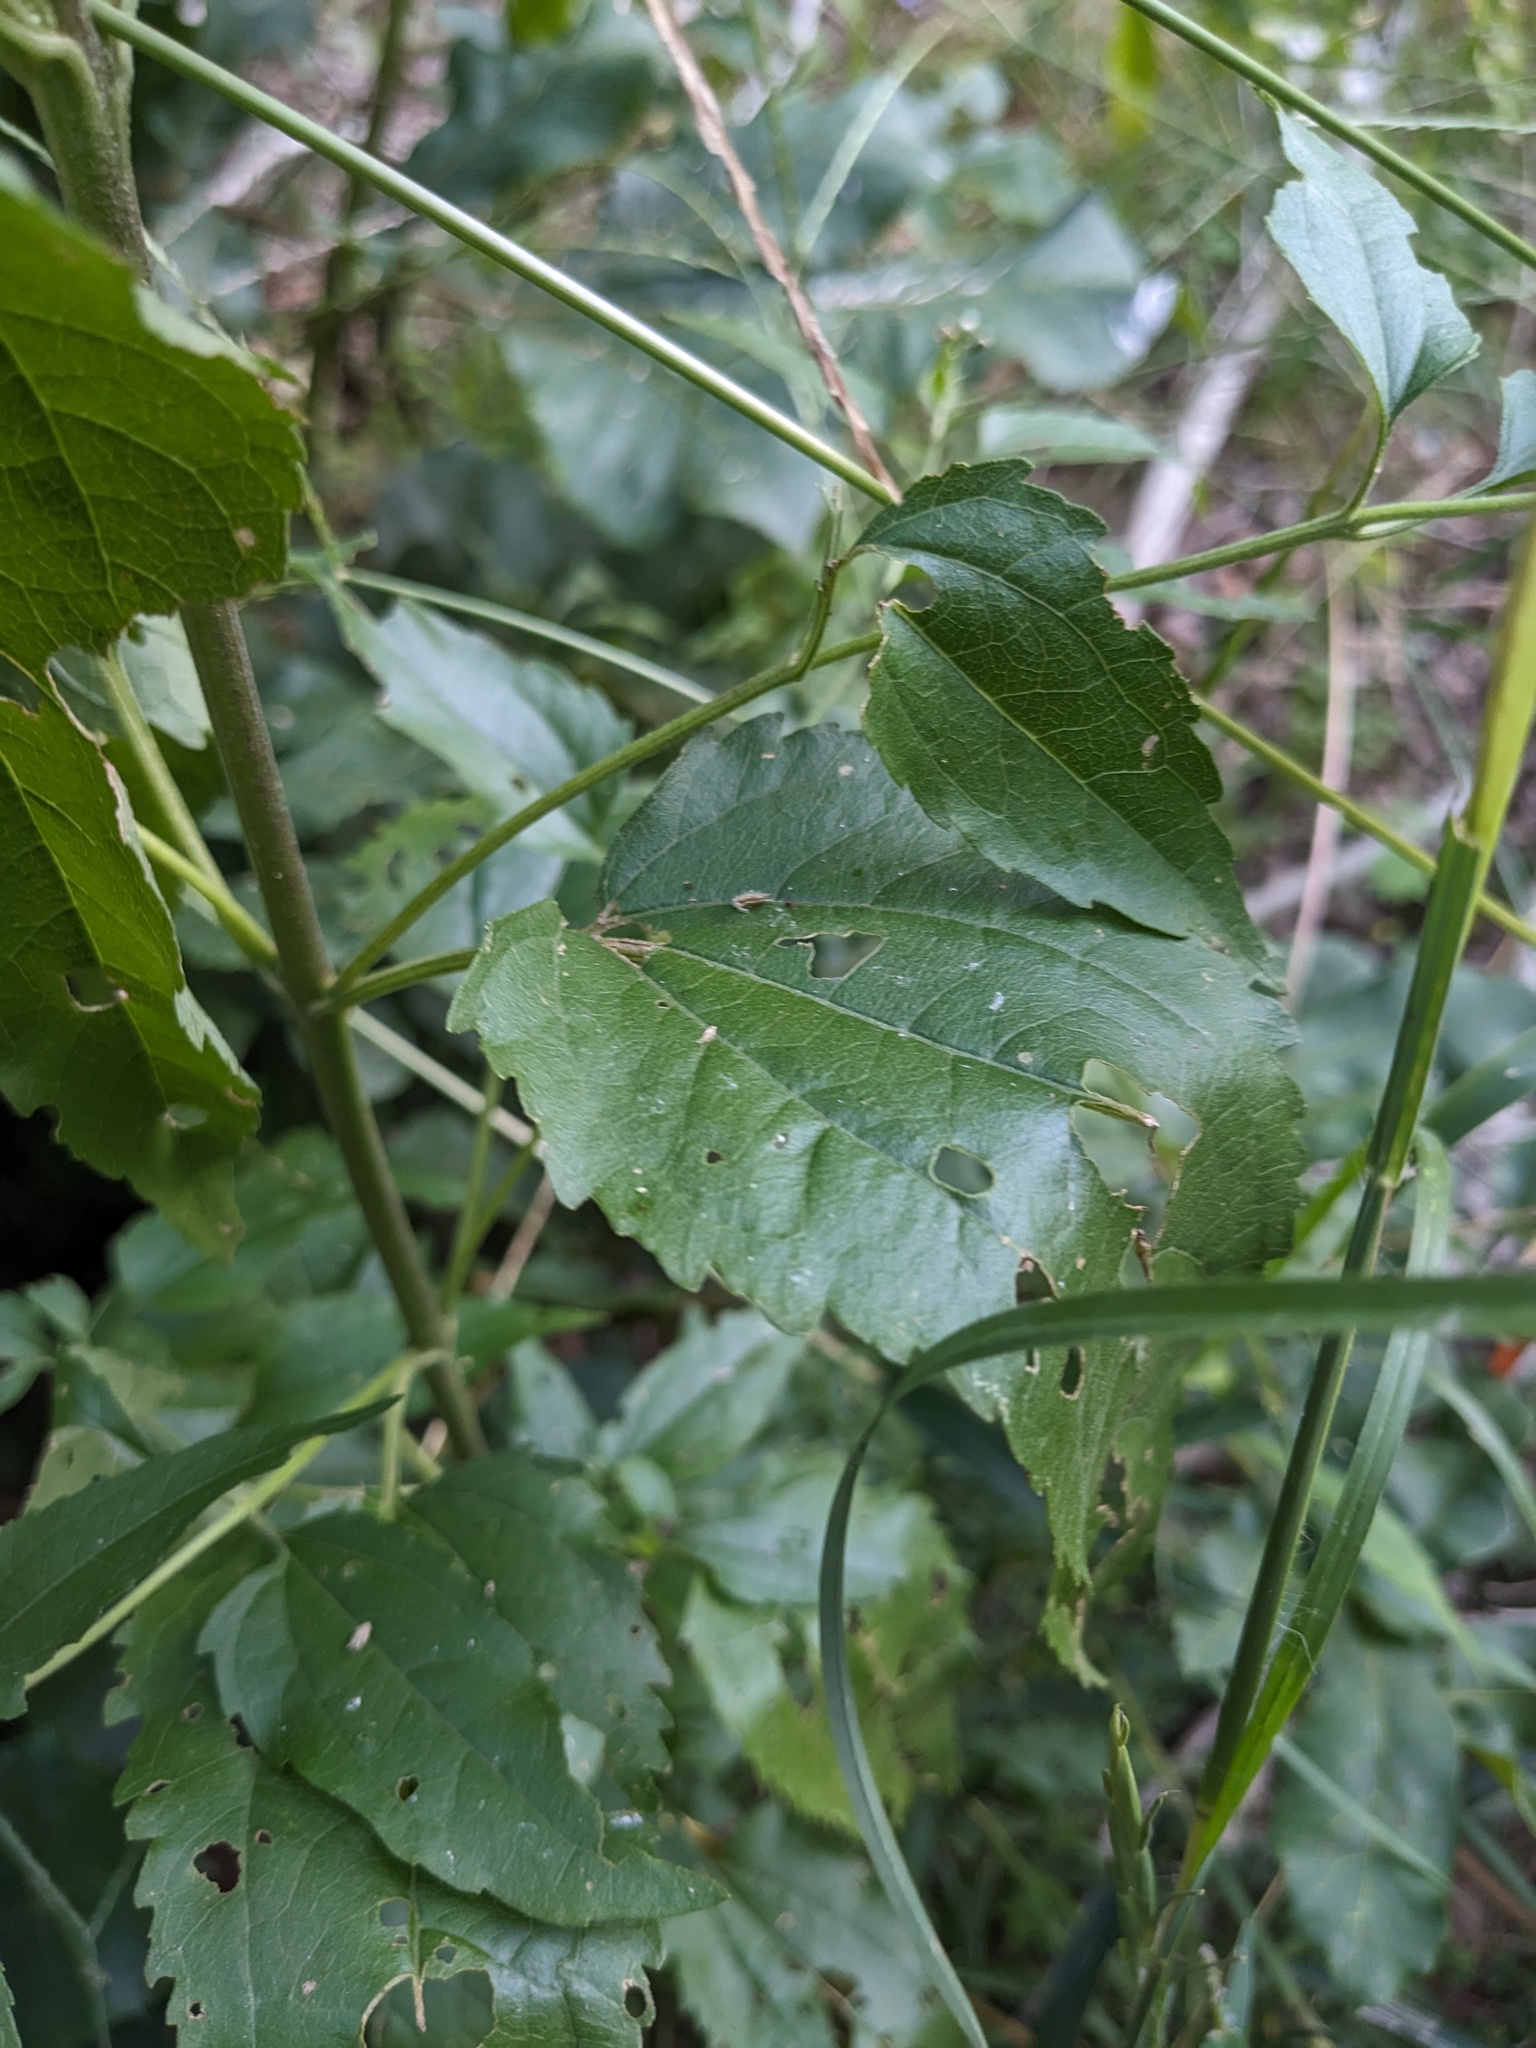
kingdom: Plantae
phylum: Tracheophyta
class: Magnoliopsida
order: Asterales
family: Asteraceae
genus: Eupatorium
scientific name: Eupatorium serotinum
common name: Late boneset
